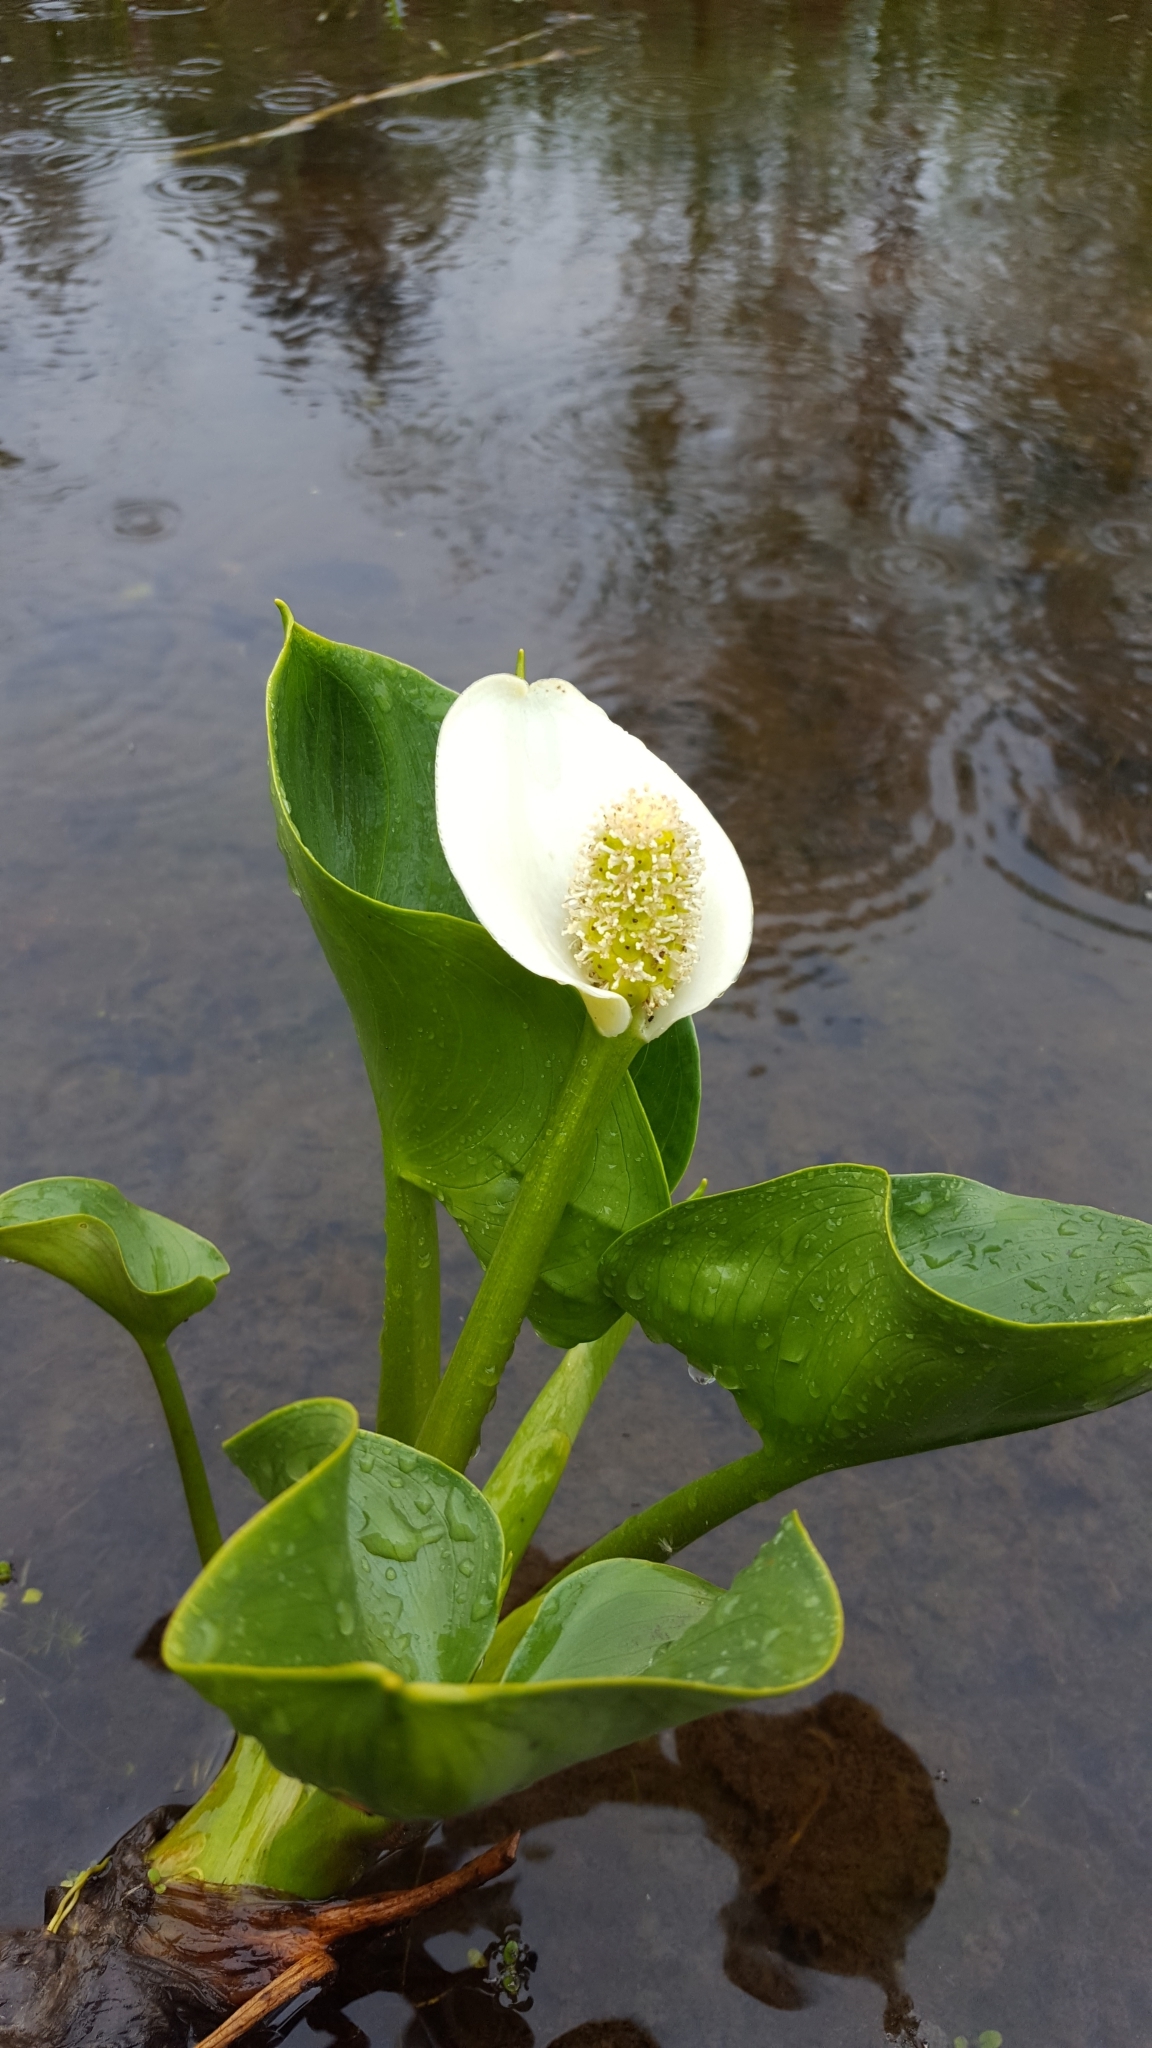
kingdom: Plantae
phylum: Tracheophyta
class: Liliopsida
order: Alismatales
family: Araceae
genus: Calla
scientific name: Calla palustris
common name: Bog arum
